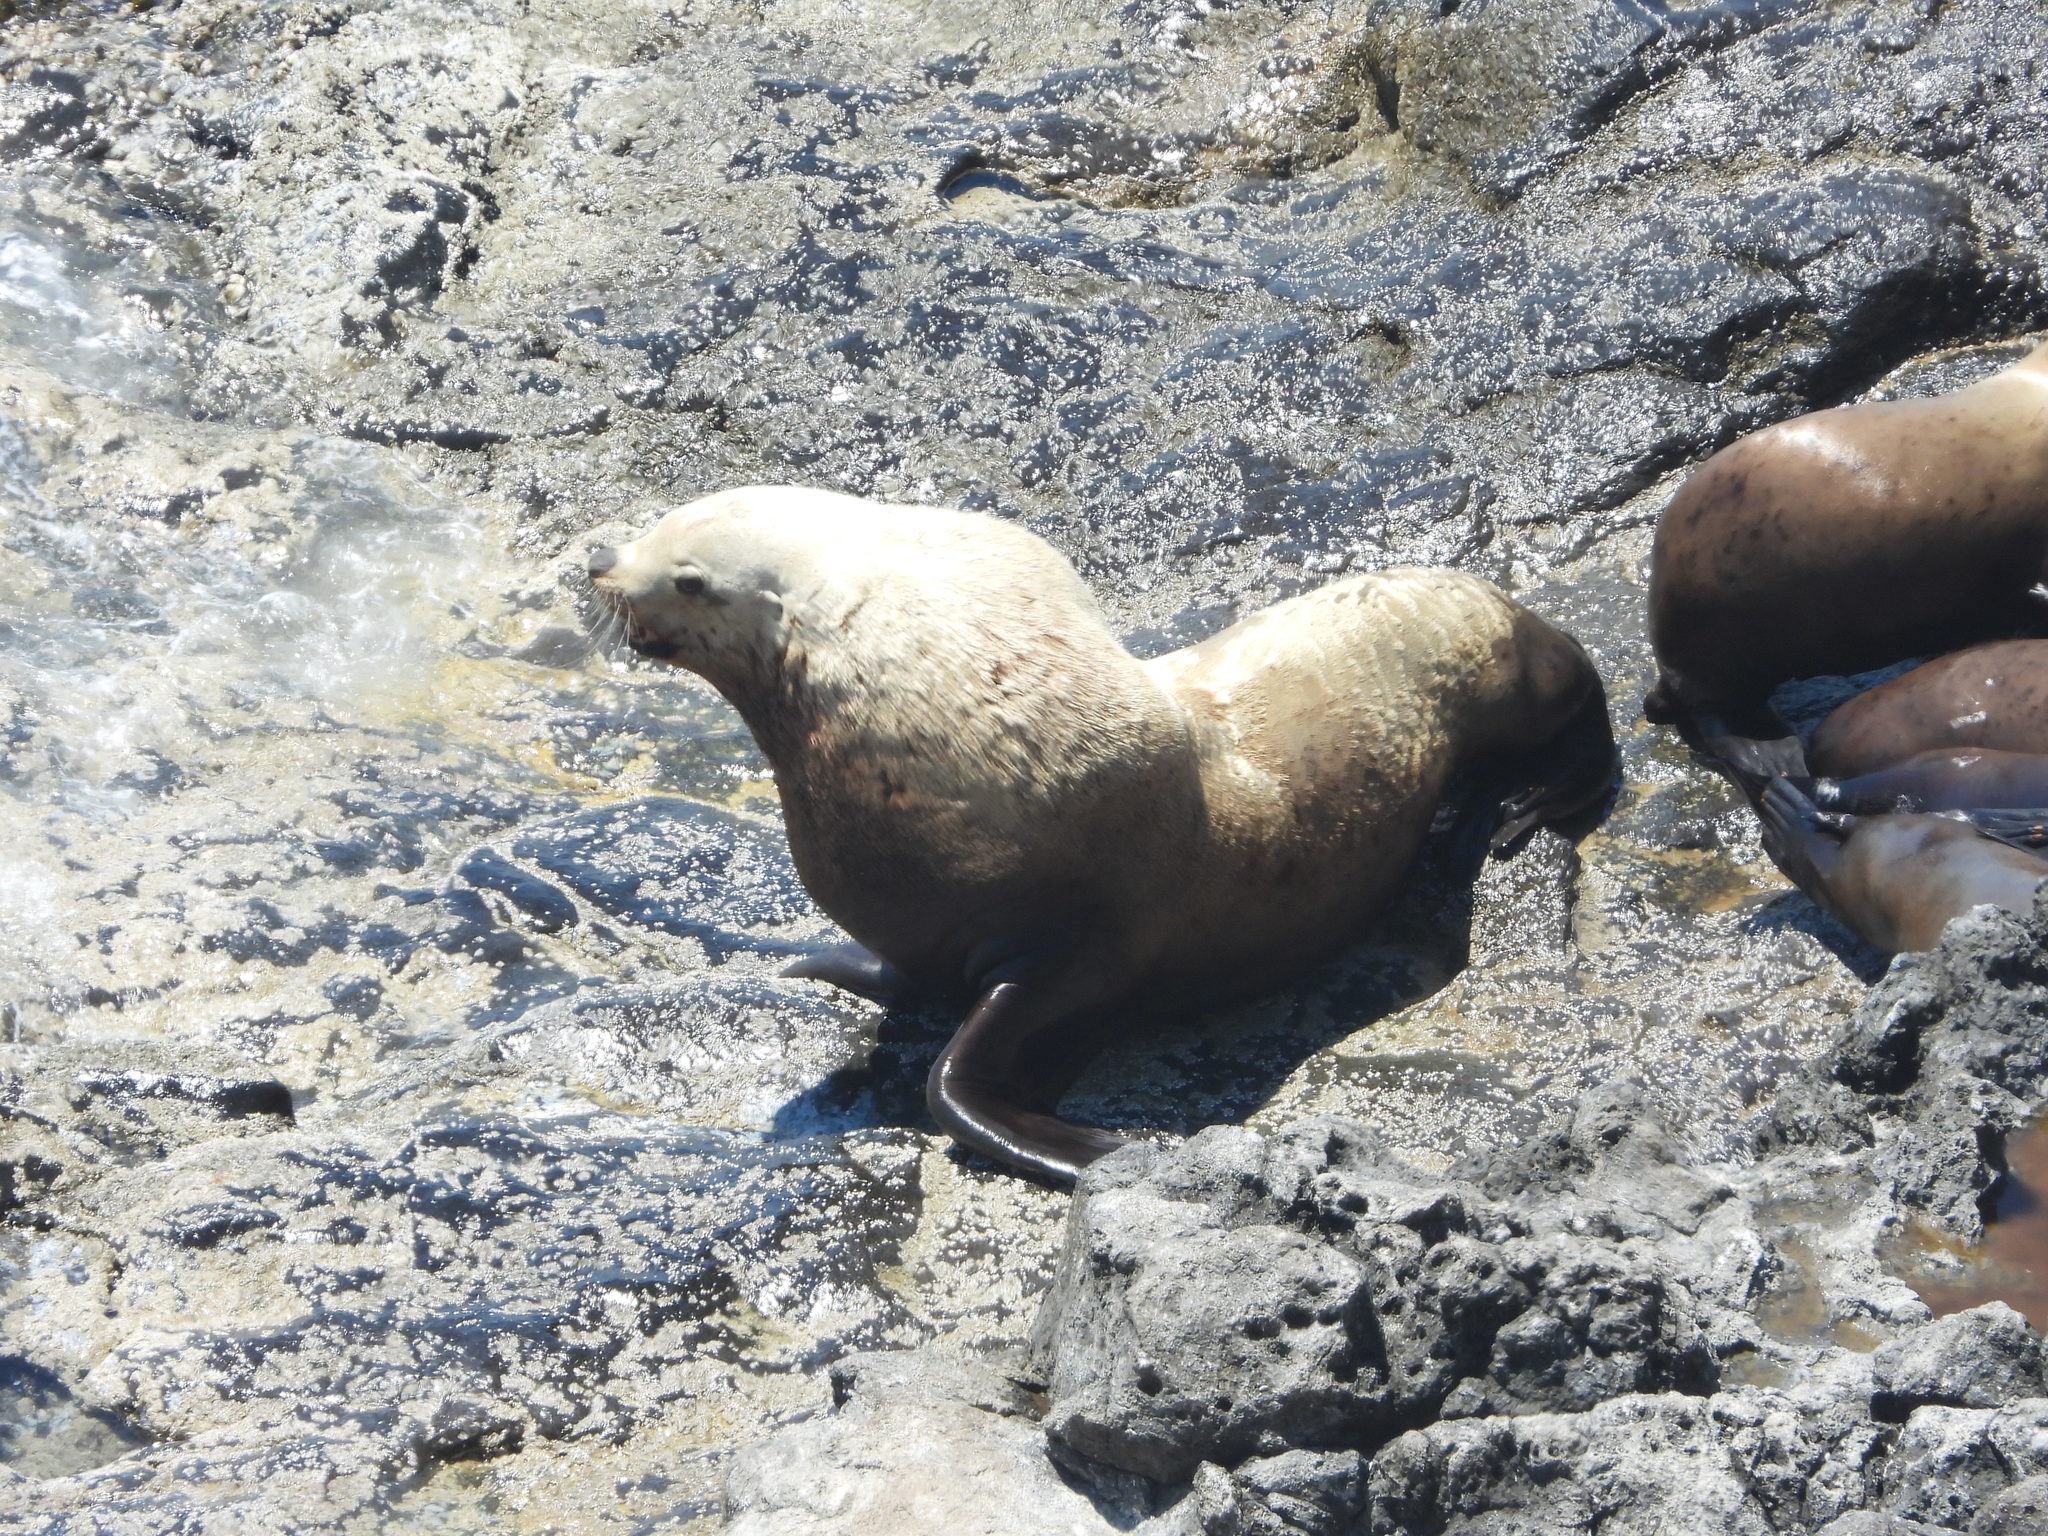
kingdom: Animalia
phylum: Chordata
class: Mammalia
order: Carnivora
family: Otariidae
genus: Eumetopias
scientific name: Eumetopias jubatus
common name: Steller sea lion
